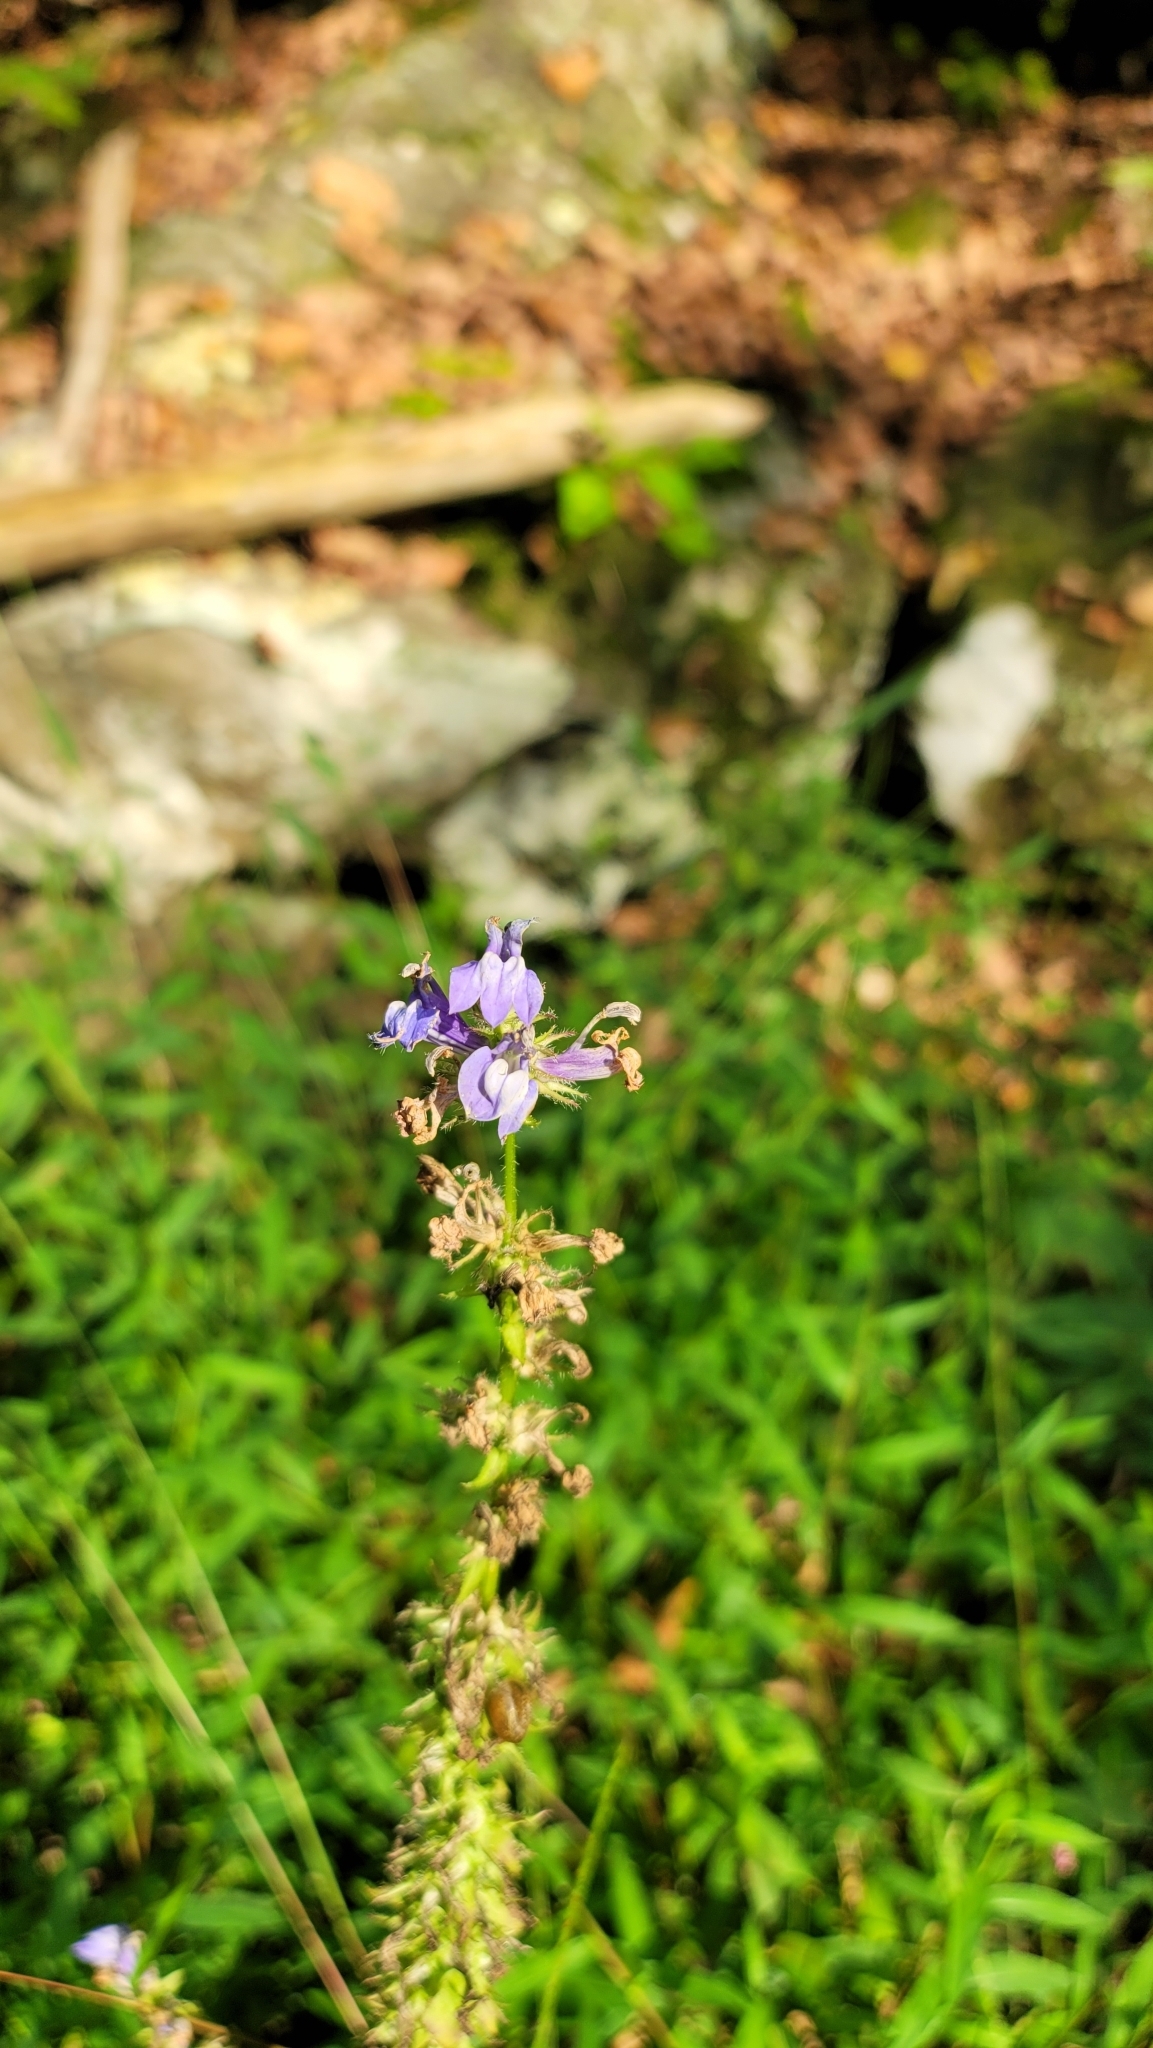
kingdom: Plantae
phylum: Tracheophyta
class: Magnoliopsida
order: Asterales
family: Campanulaceae
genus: Lobelia
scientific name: Lobelia siphilitica
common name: Great lobelia
